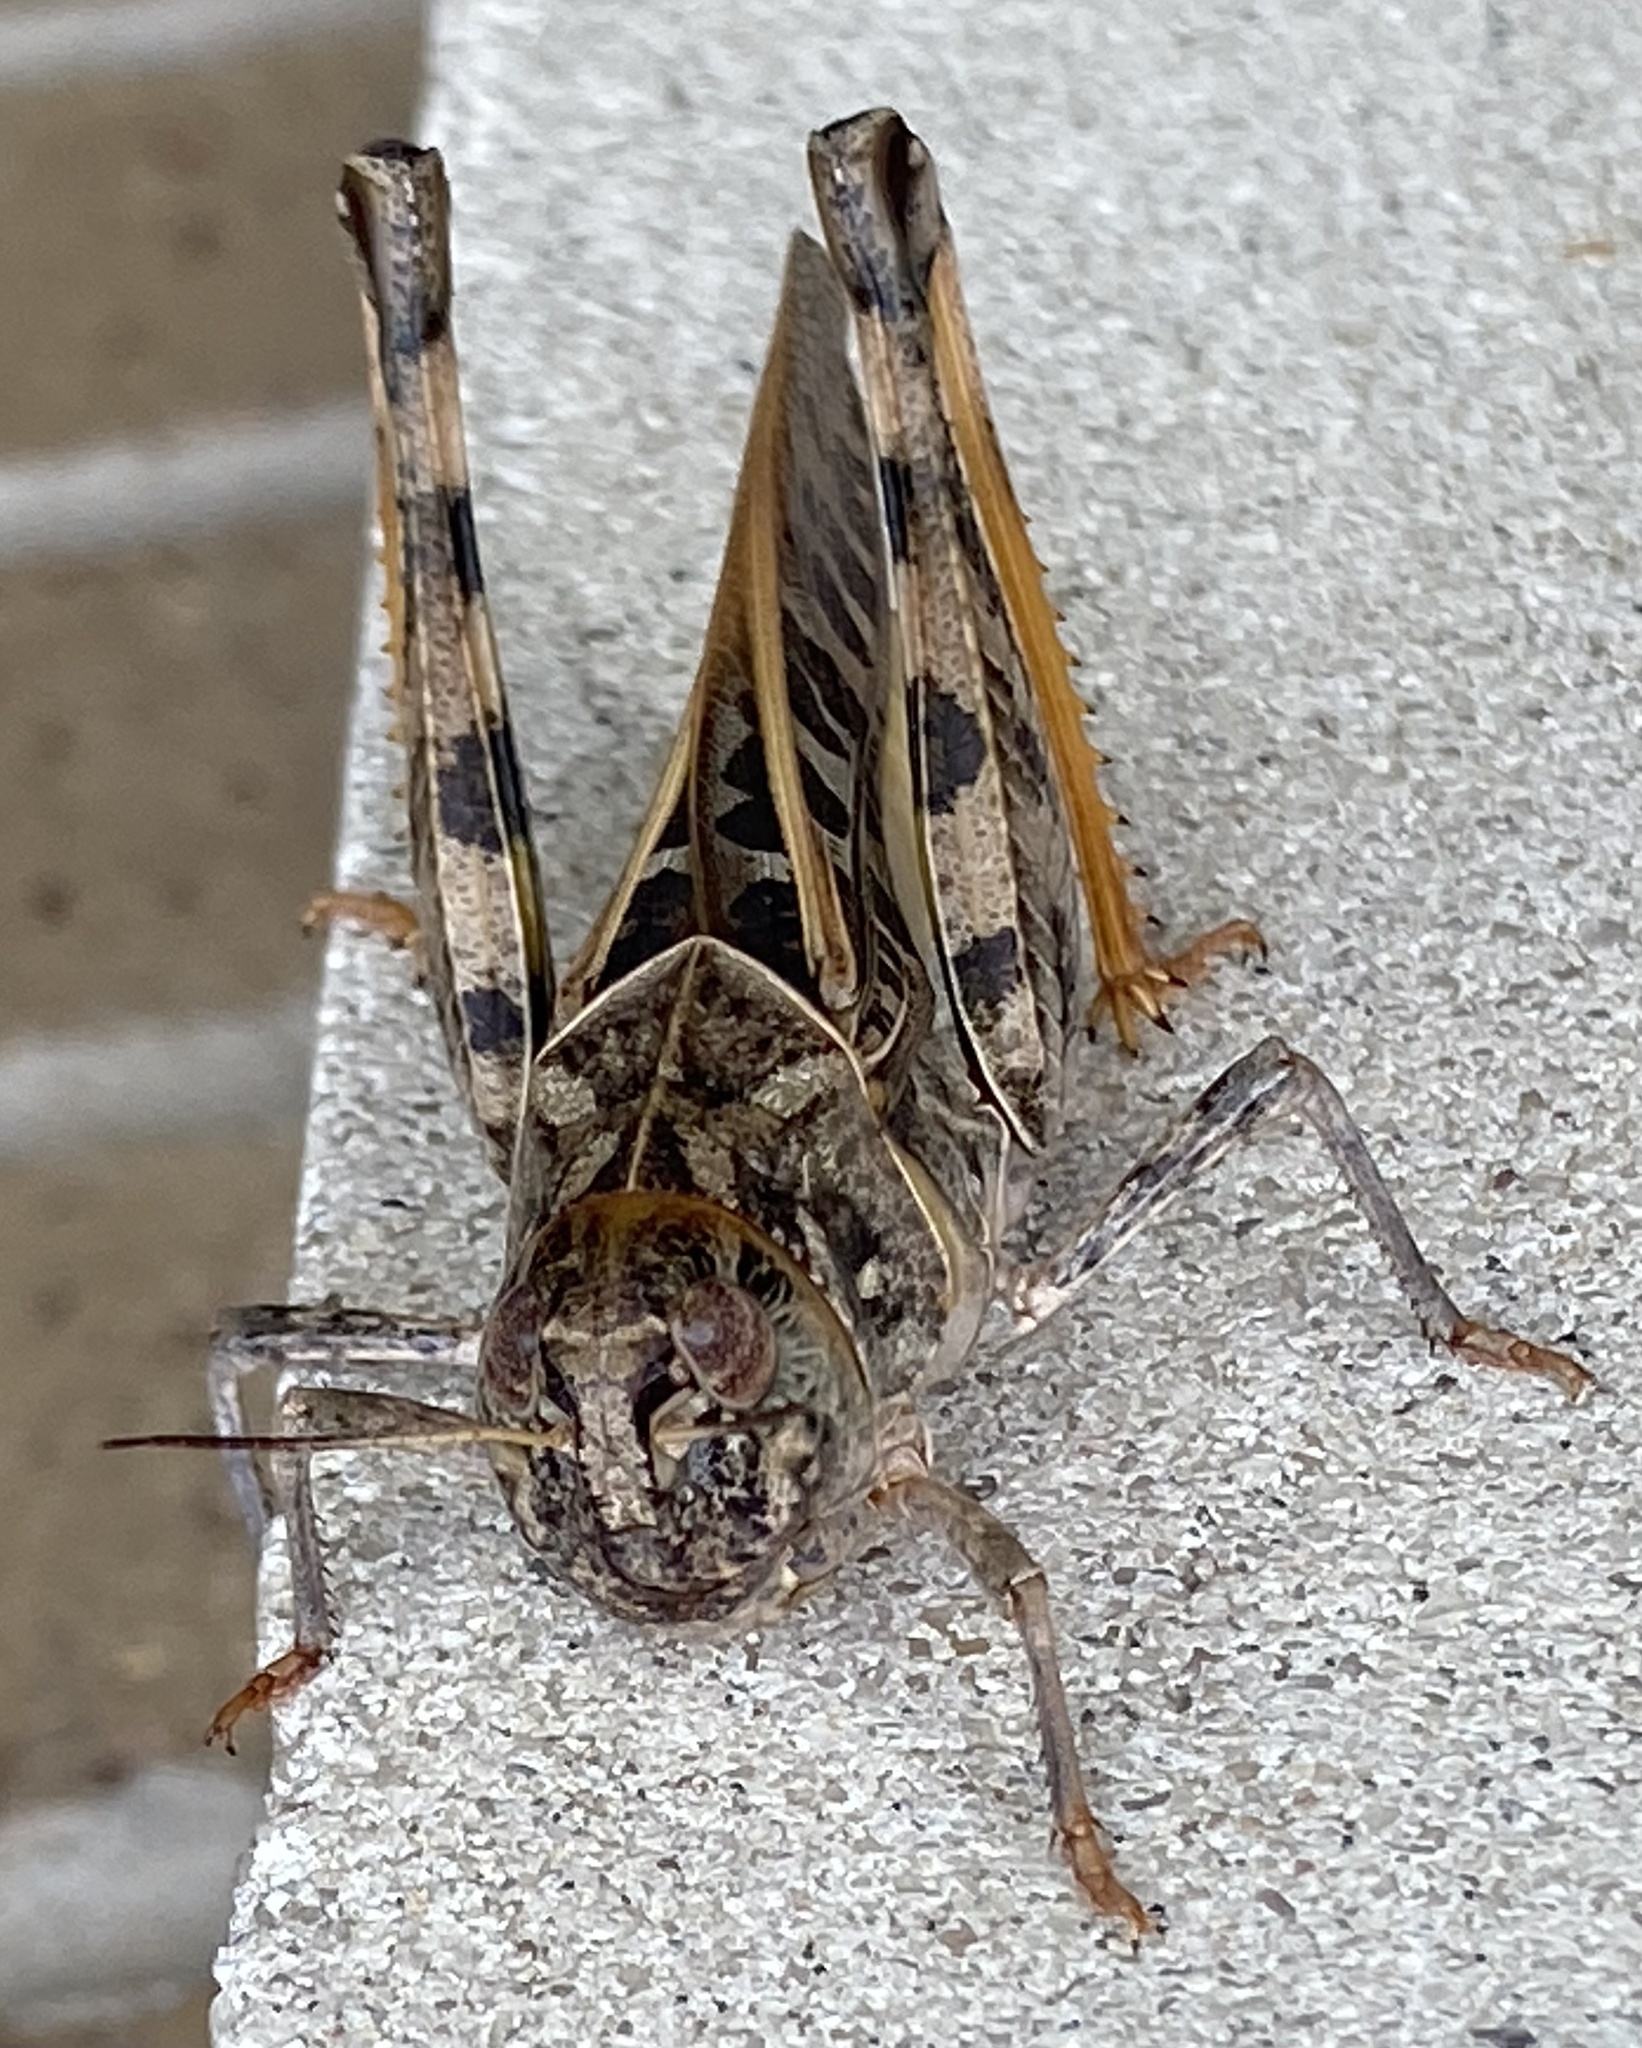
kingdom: Animalia
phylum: Arthropoda
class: Insecta
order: Orthoptera
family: Acrididae
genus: Hippiscus
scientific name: Hippiscus ocelote
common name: Wrinkled grasshopper
